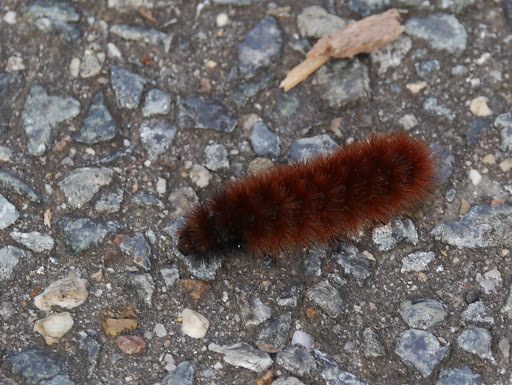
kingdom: Animalia
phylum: Arthropoda
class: Insecta
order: Lepidoptera
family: Erebidae
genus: Pyrrharctia
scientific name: Pyrrharctia isabella
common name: Isabella tiger moth
